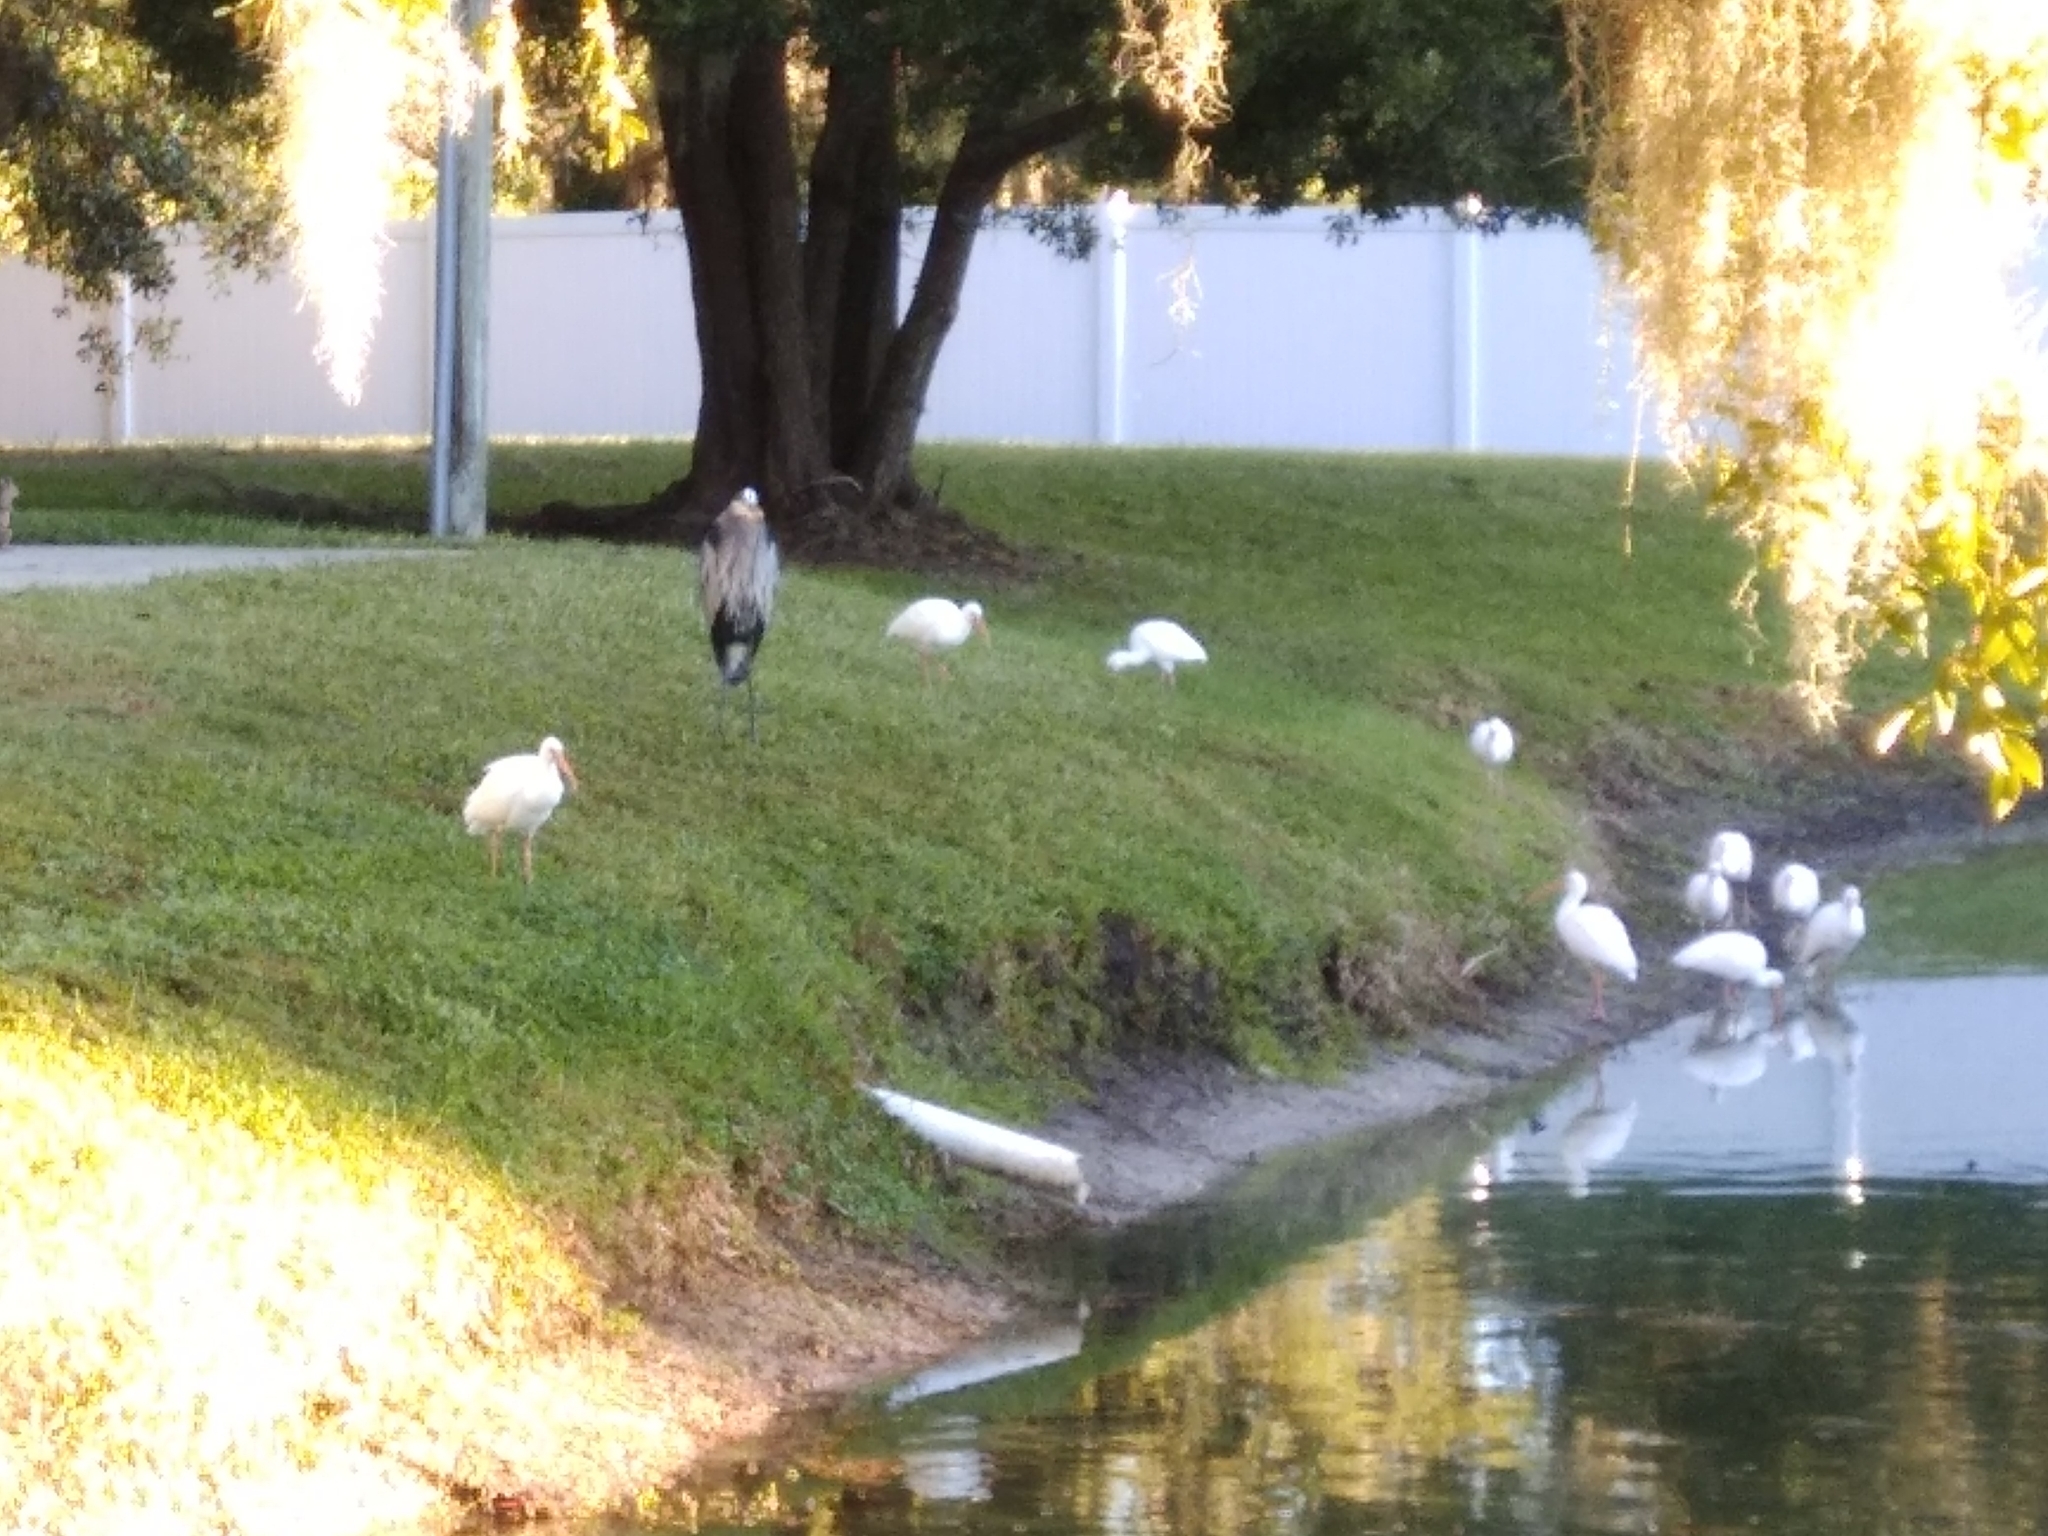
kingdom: Animalia
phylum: Chordata
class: Aves
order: Pelecaniformes
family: Ardeidae
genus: Ardea
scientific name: Ardea herodias
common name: Great blue heron
